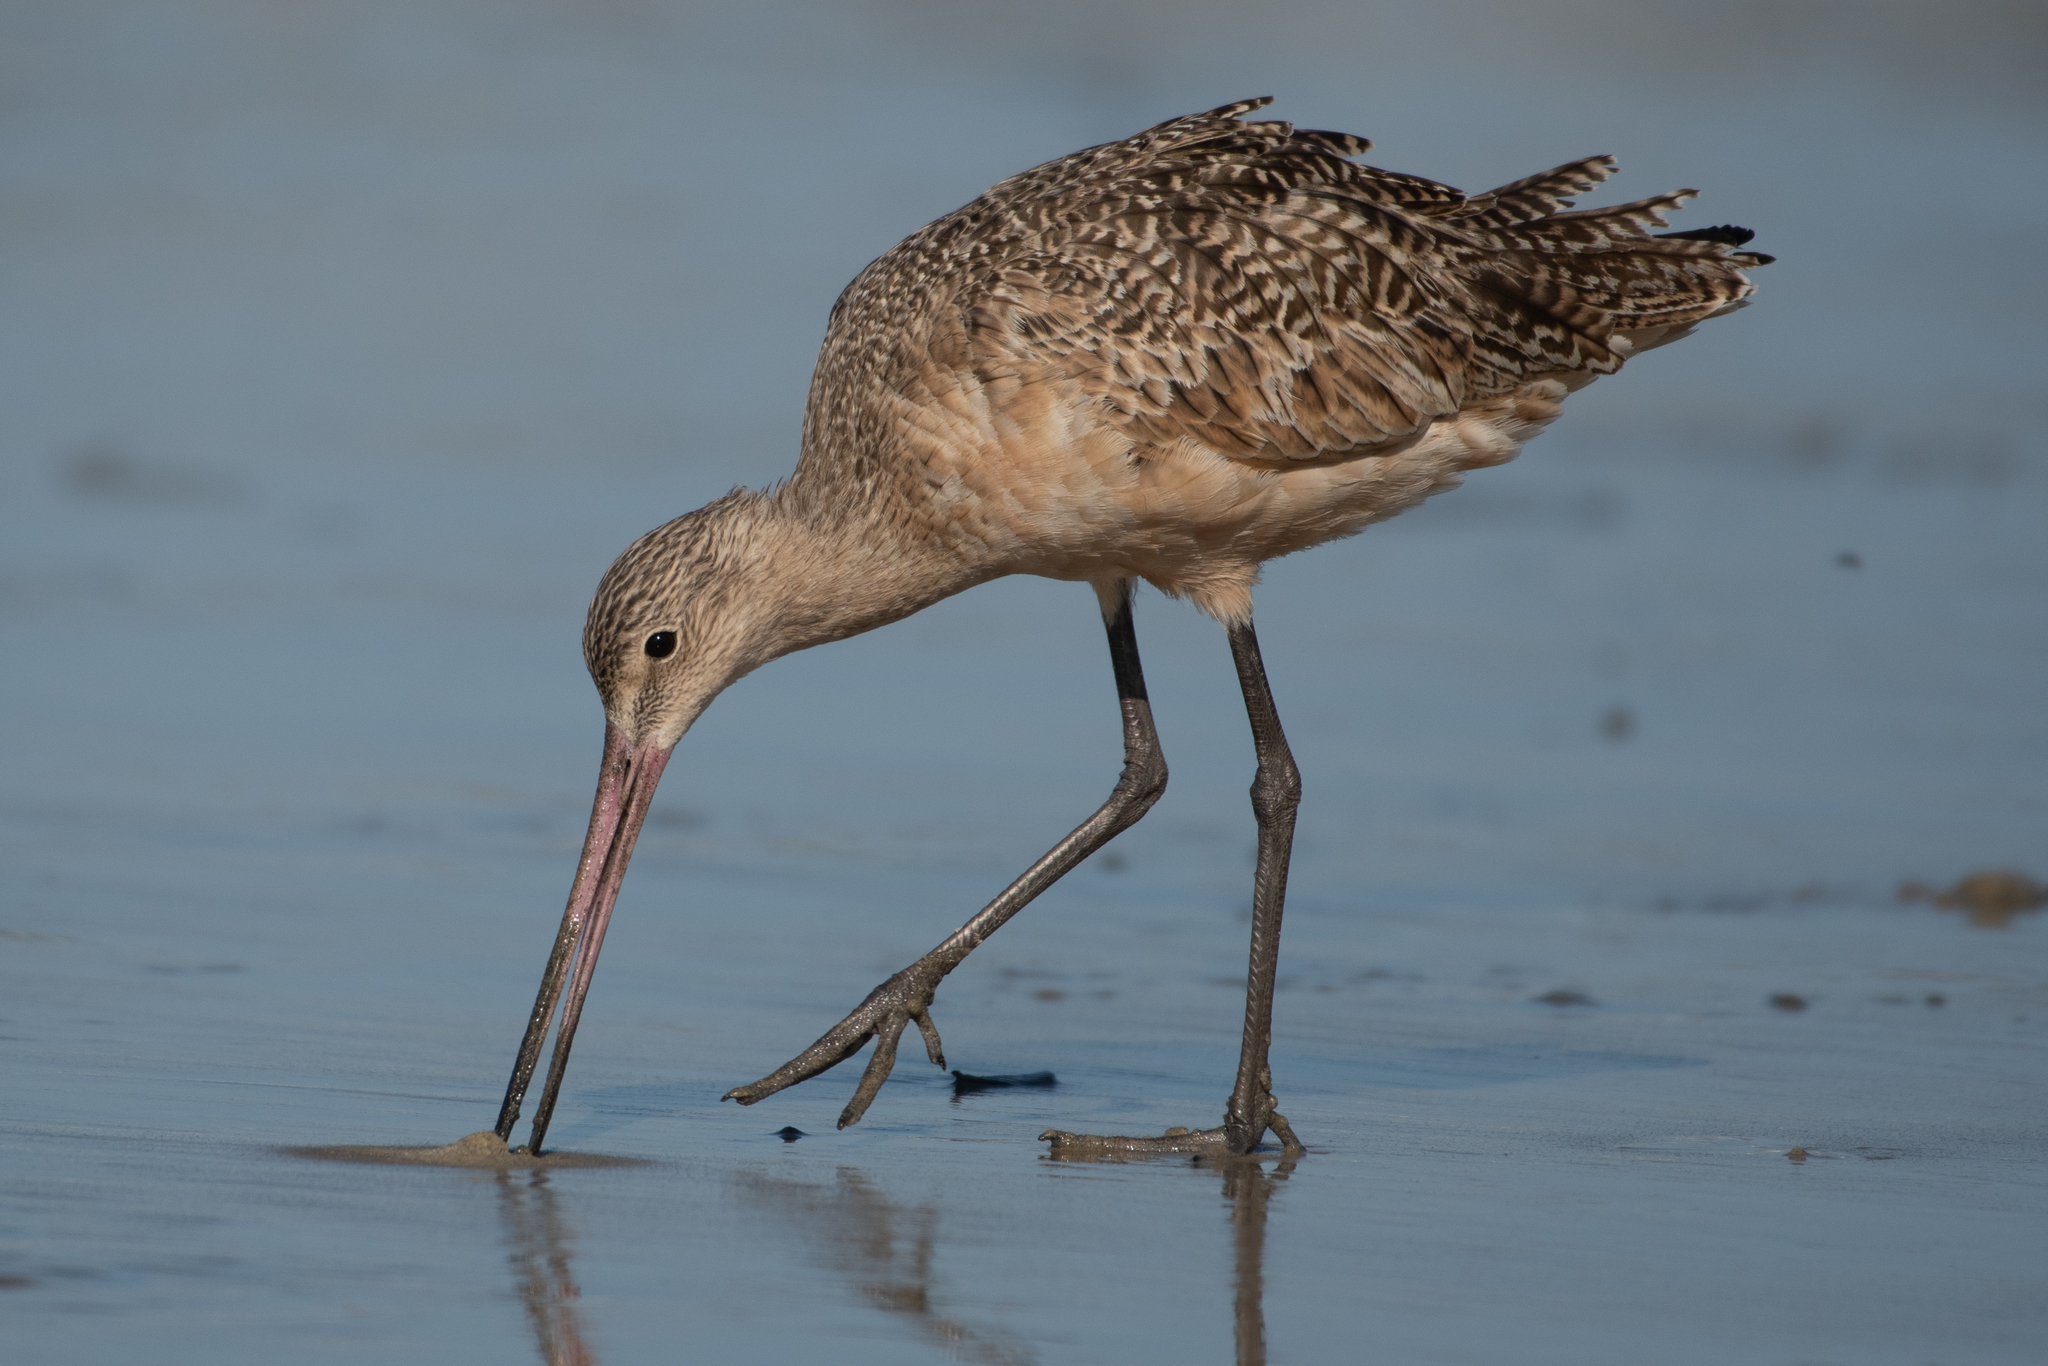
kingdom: Animalia
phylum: Chordata
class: Aves
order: Charadriiformes
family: Scolopacidae
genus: Limosa
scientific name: Limosa fedoa
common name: Marbled godwit
